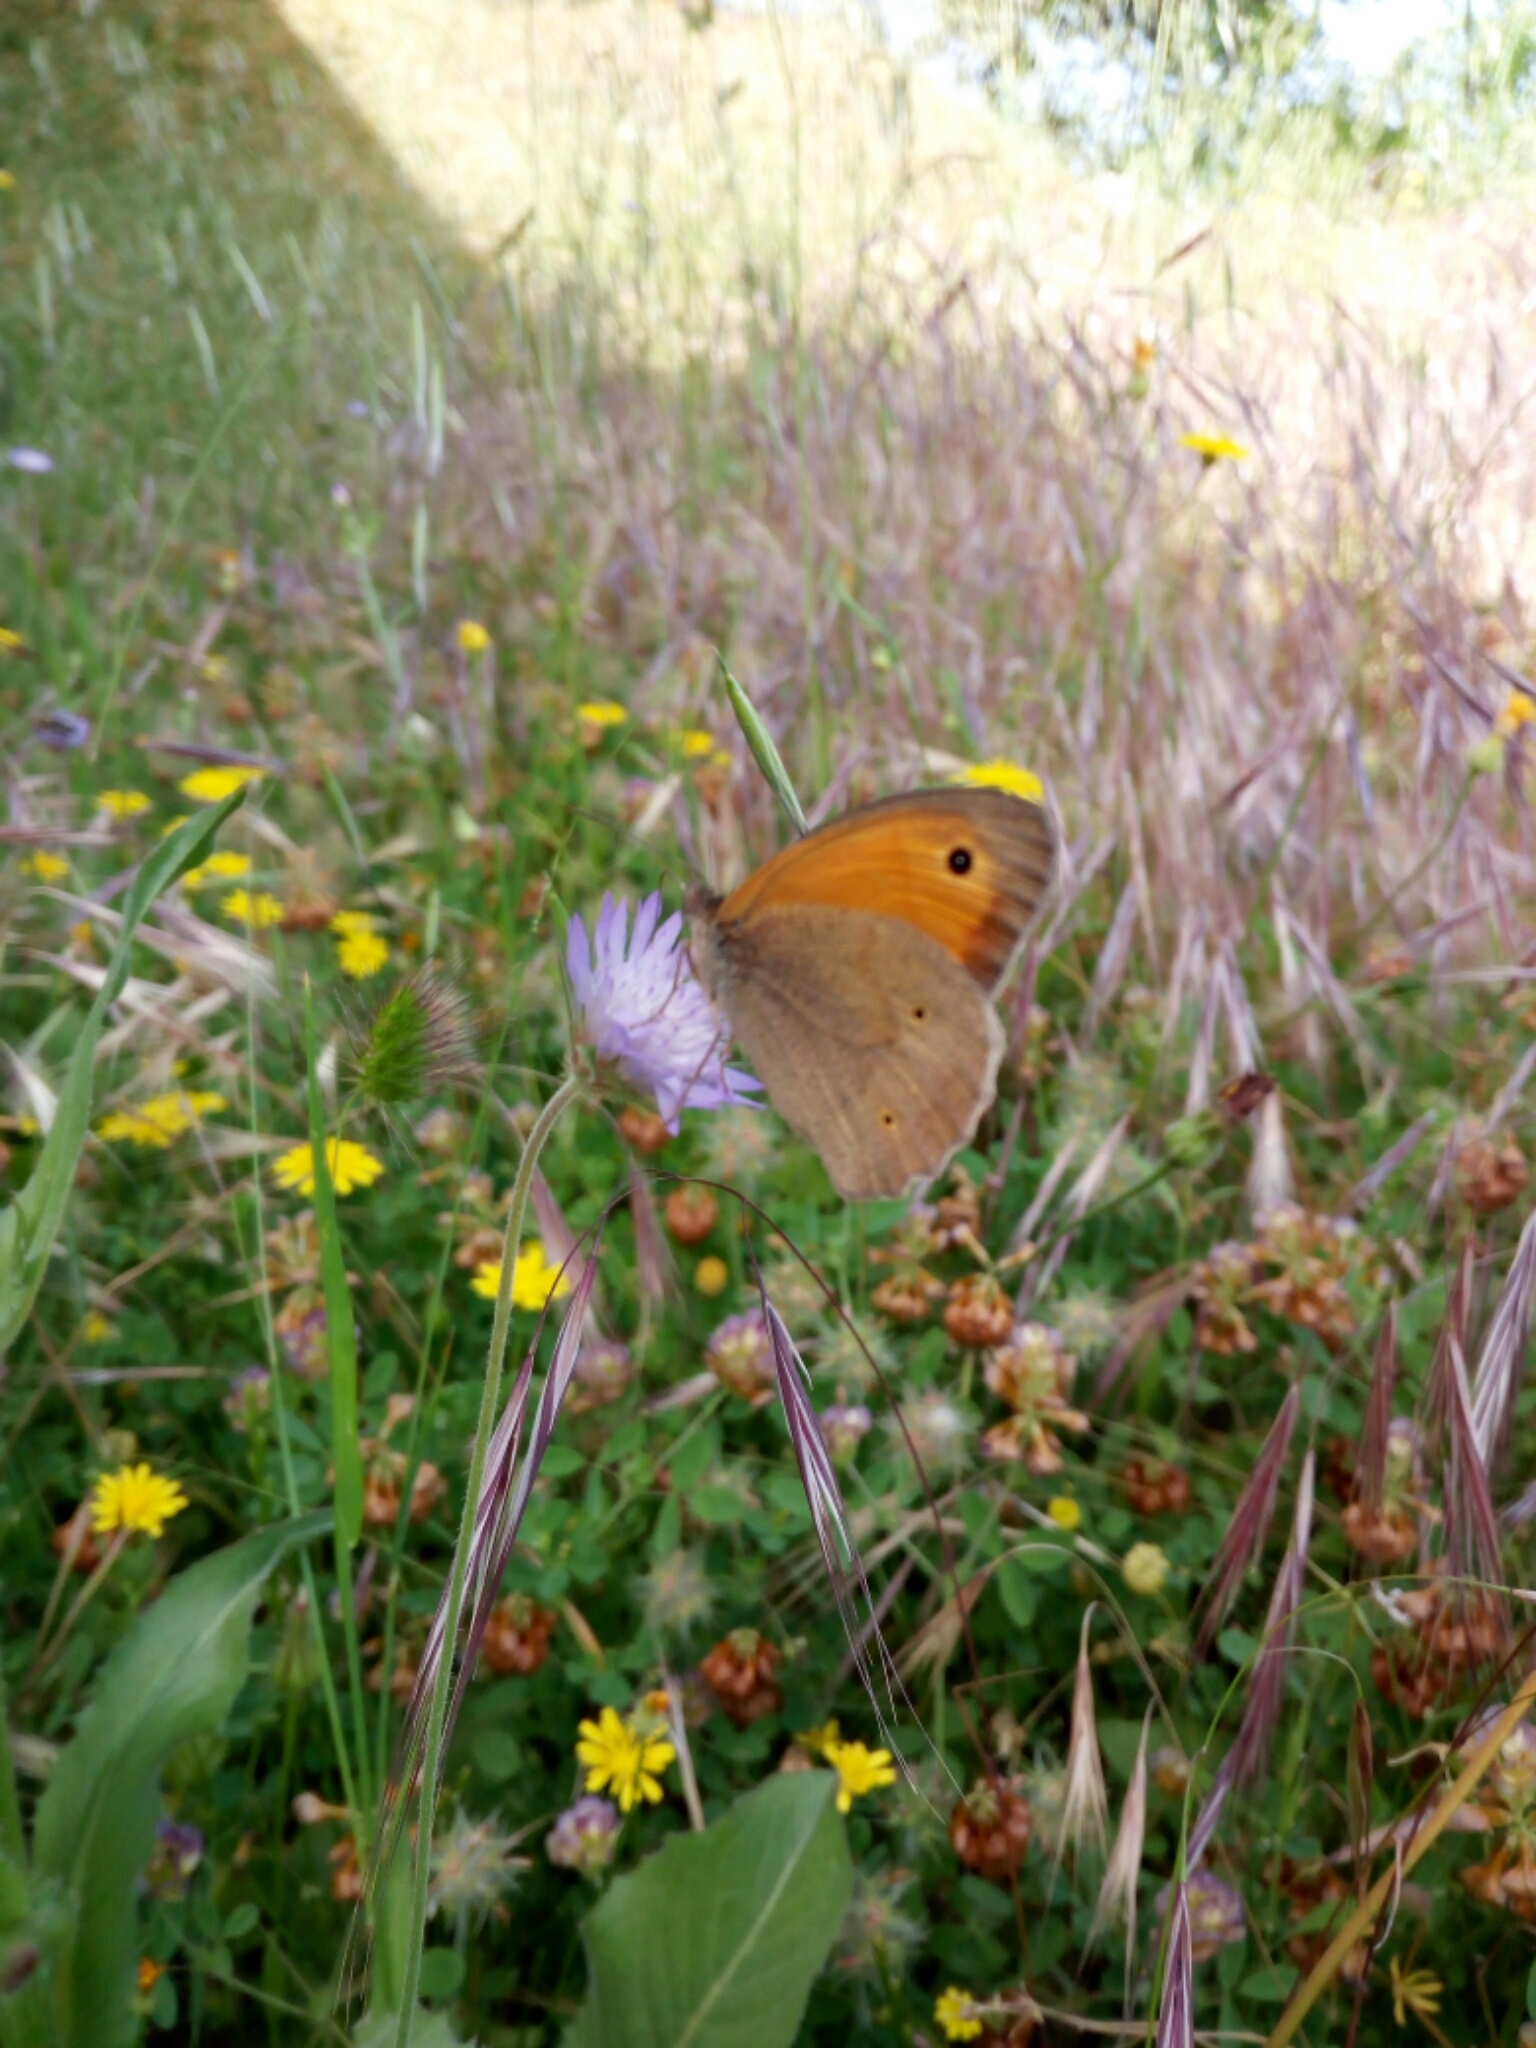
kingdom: Animalia
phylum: Arthropoda
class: Insecta
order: Lepidoptera
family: Nymphalidae
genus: Maniola
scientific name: Maniola jurtina
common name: Meadow brown
